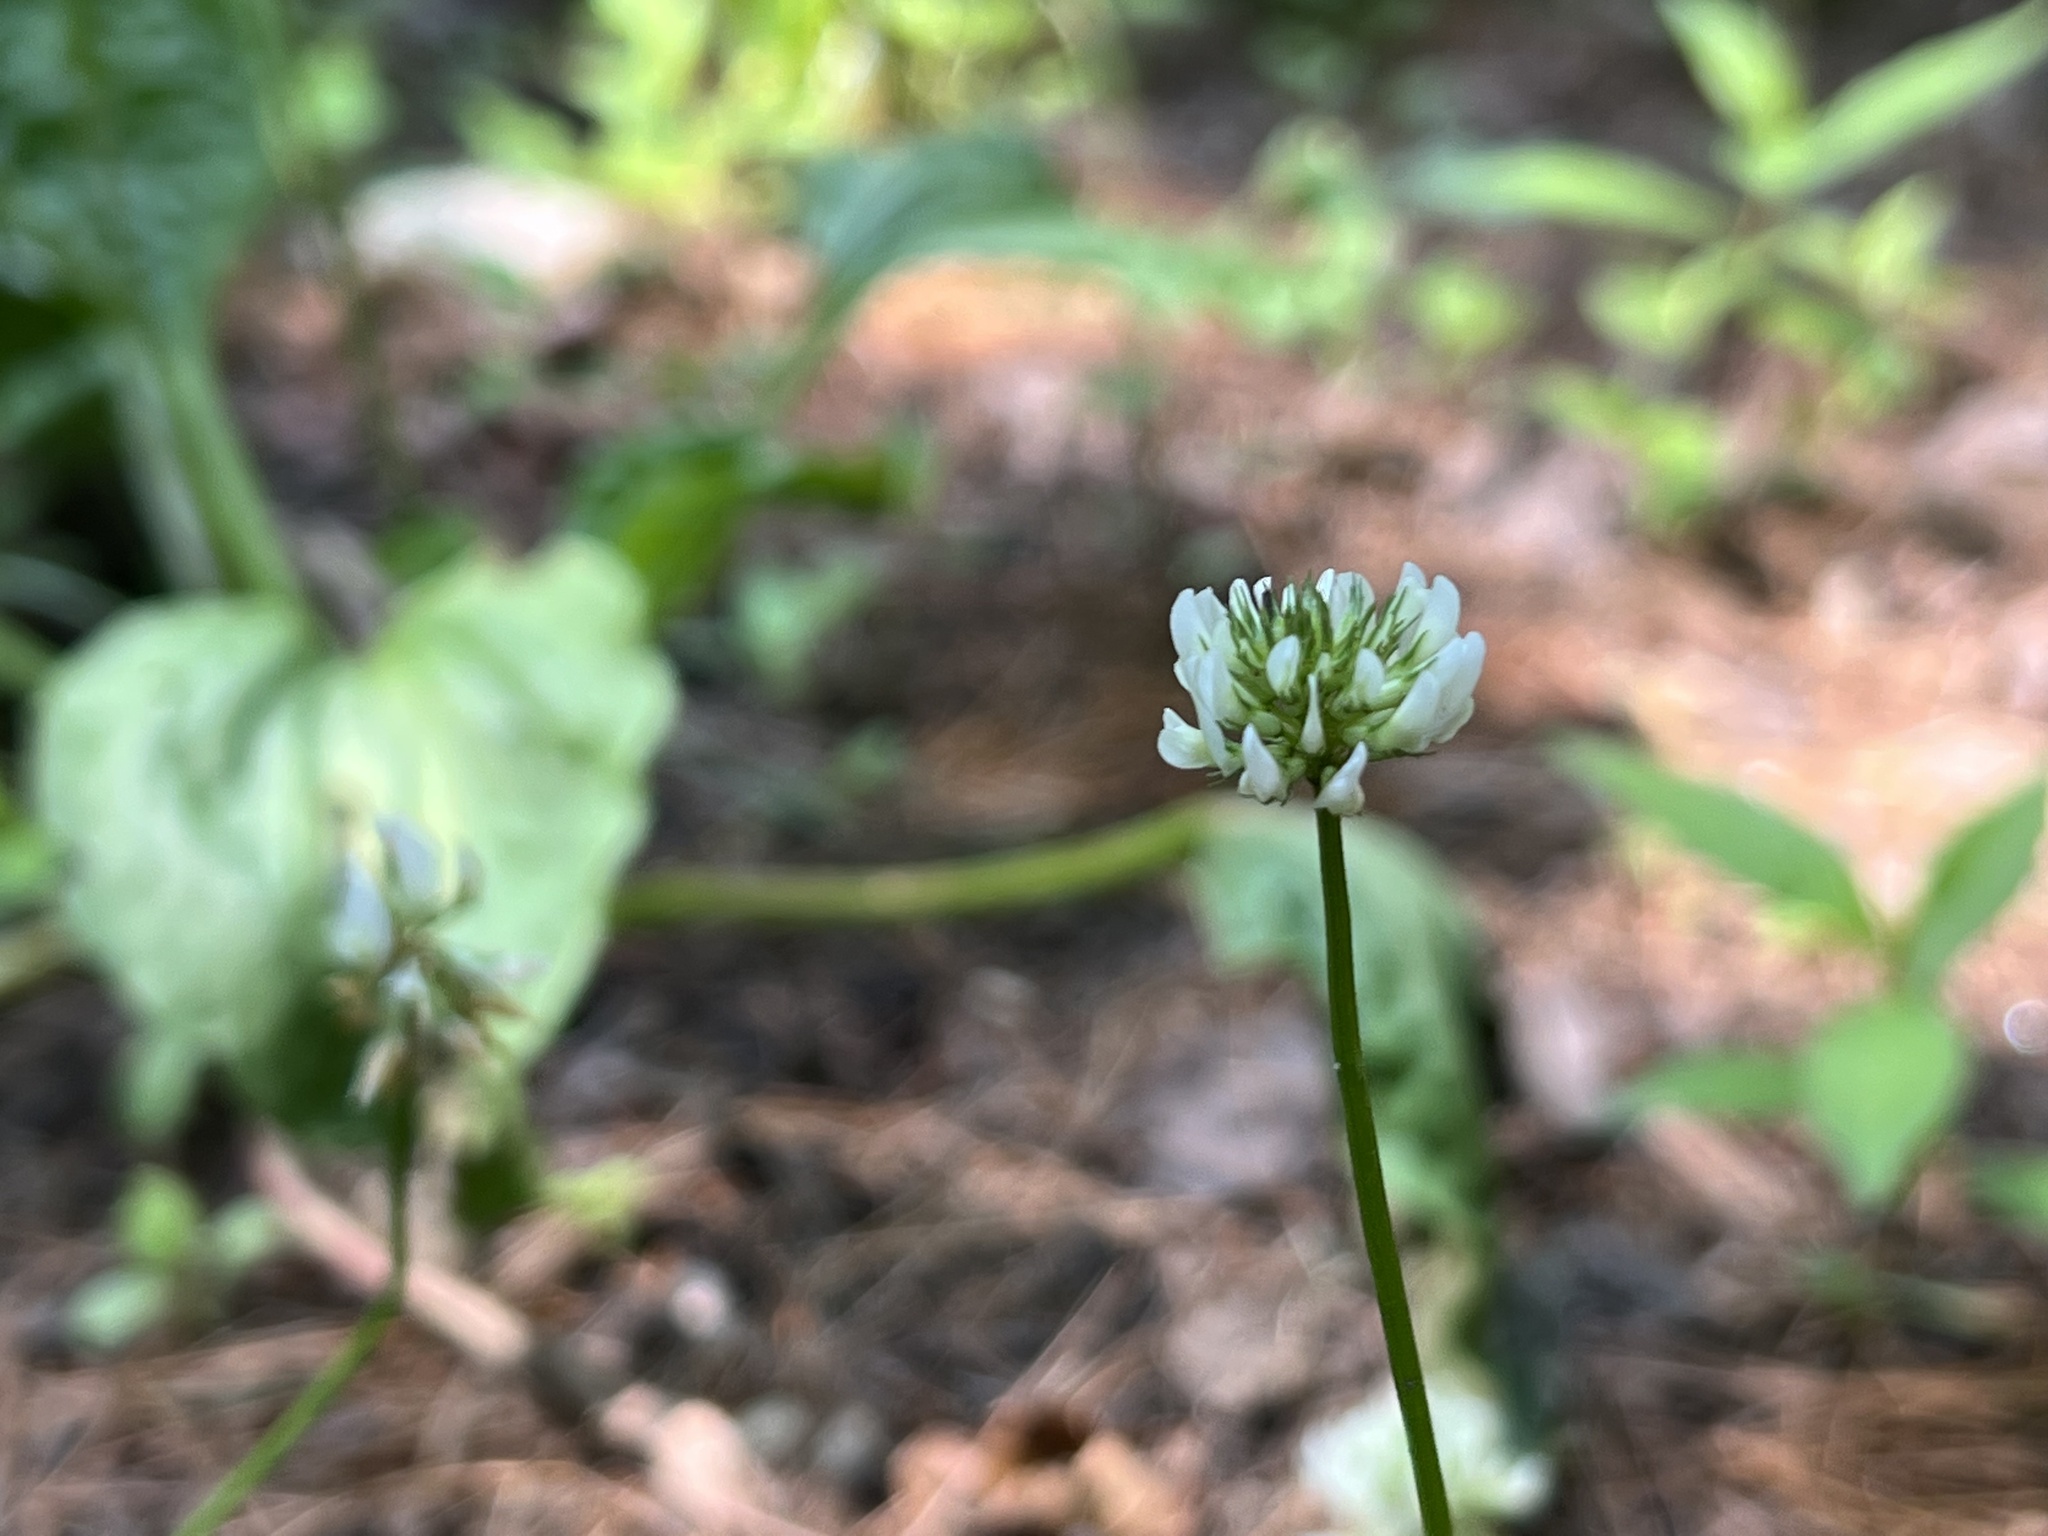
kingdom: Plantae
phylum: Tracheophyta
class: Magnoliopsida
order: Fabales
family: Fabaceae
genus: Trifolium
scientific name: Trifolium repens
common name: White clover
